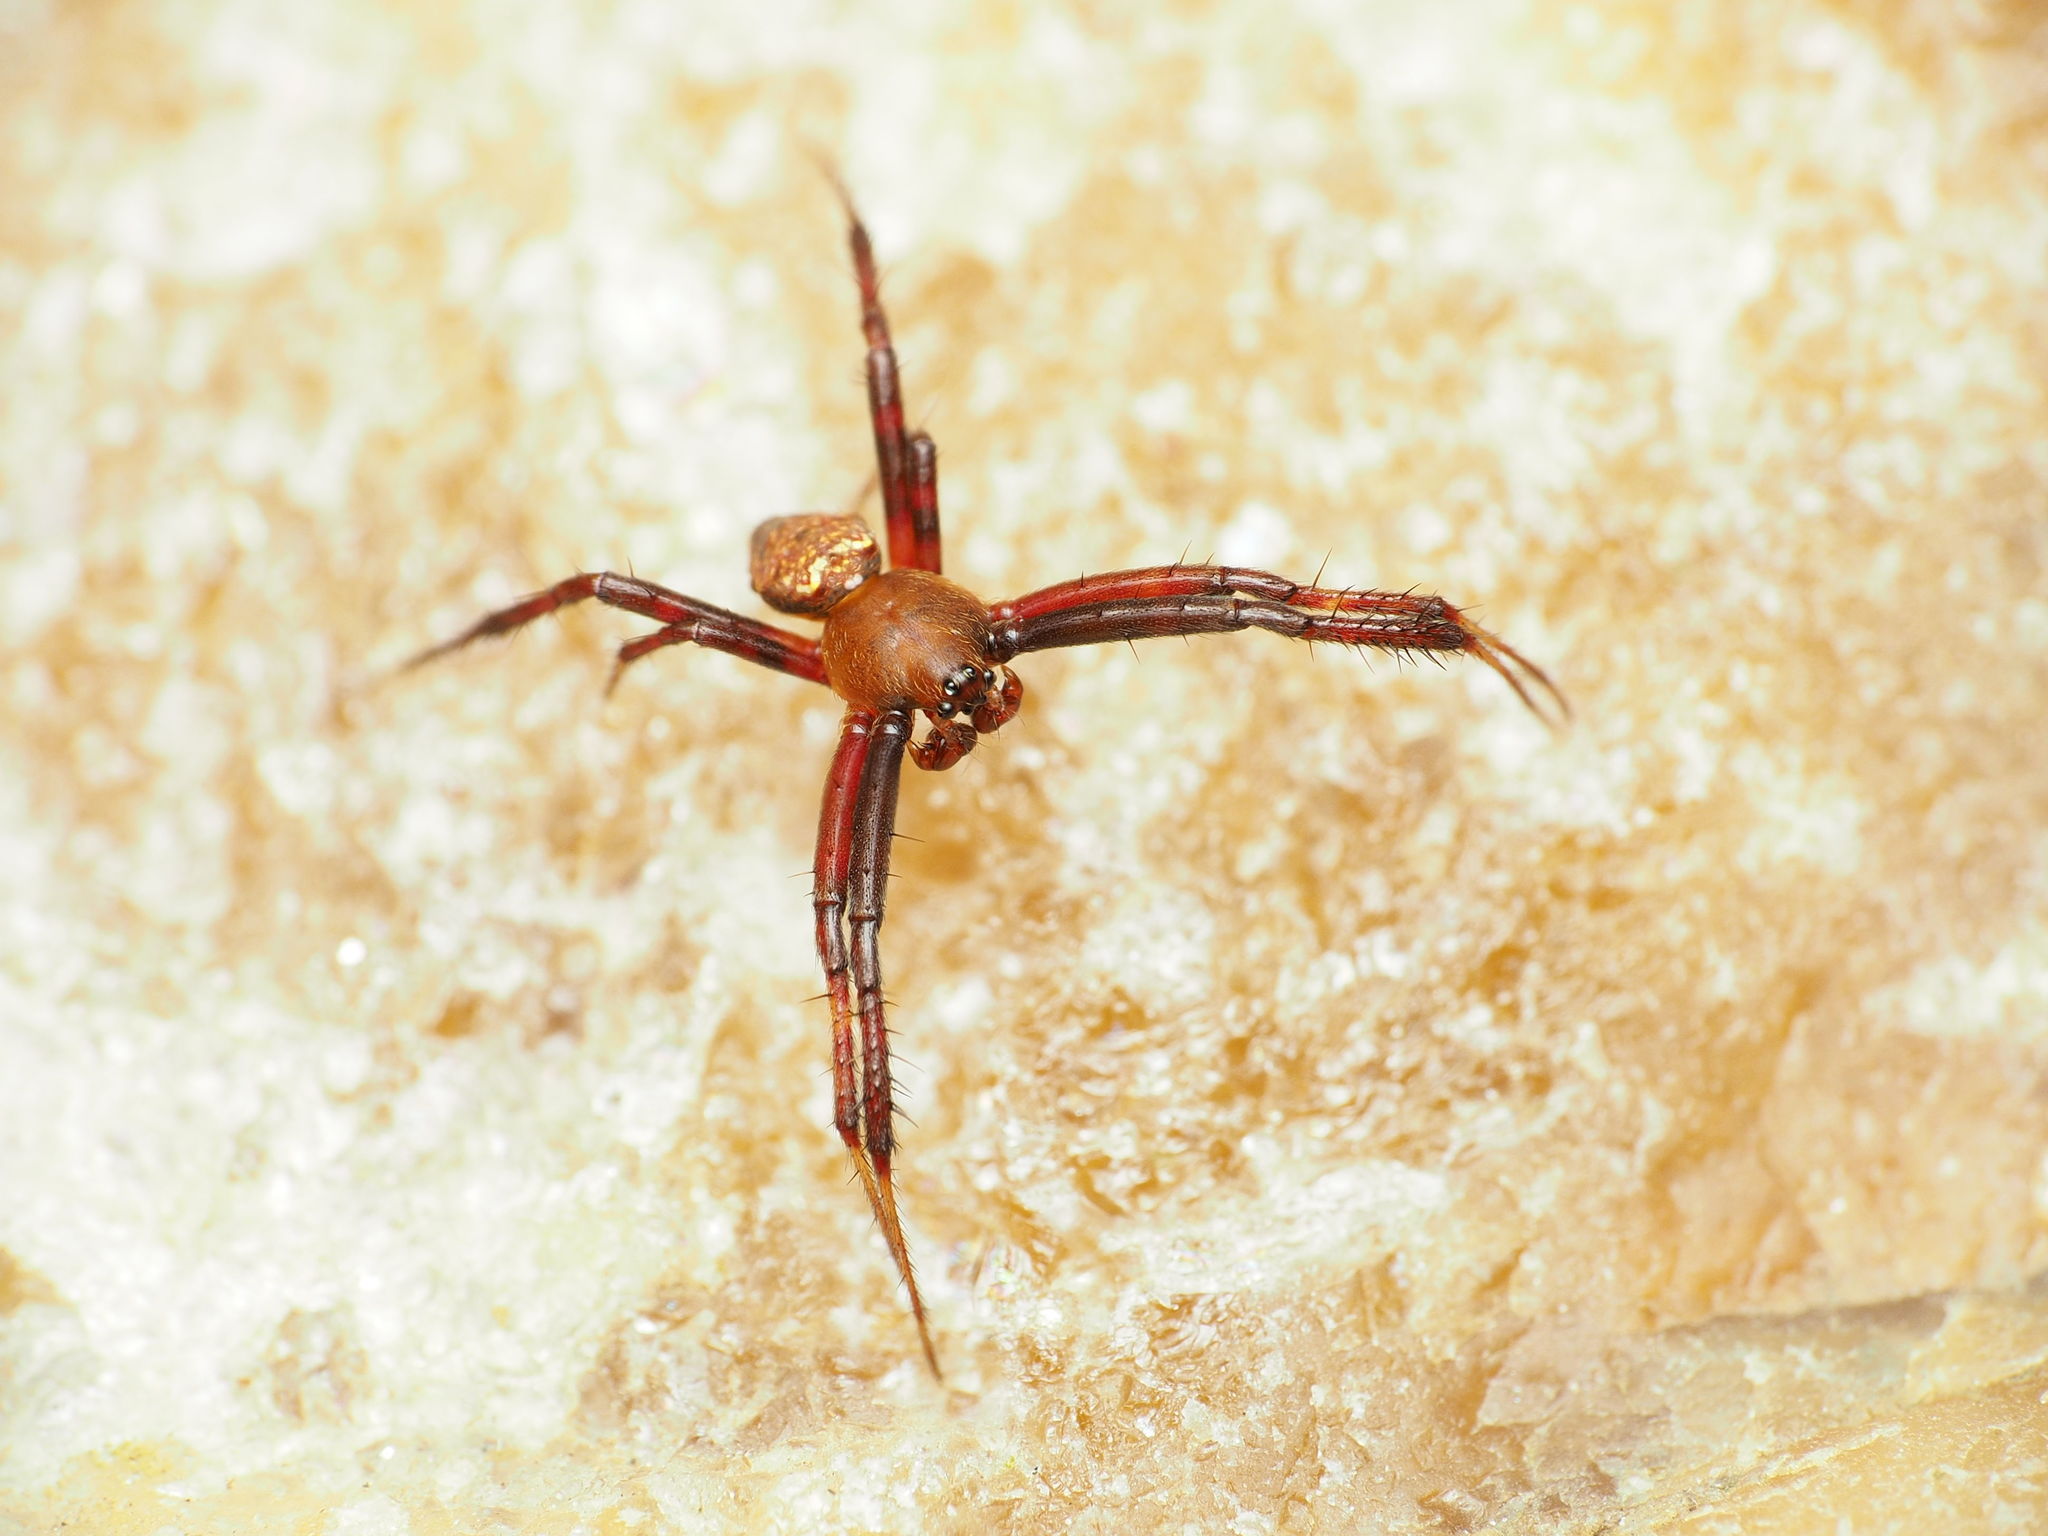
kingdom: Animalia
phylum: Arthropoda
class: Arachnida
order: Araneae
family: Araneidae
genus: Gea
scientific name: Gea heptagon
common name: Orb weavers
